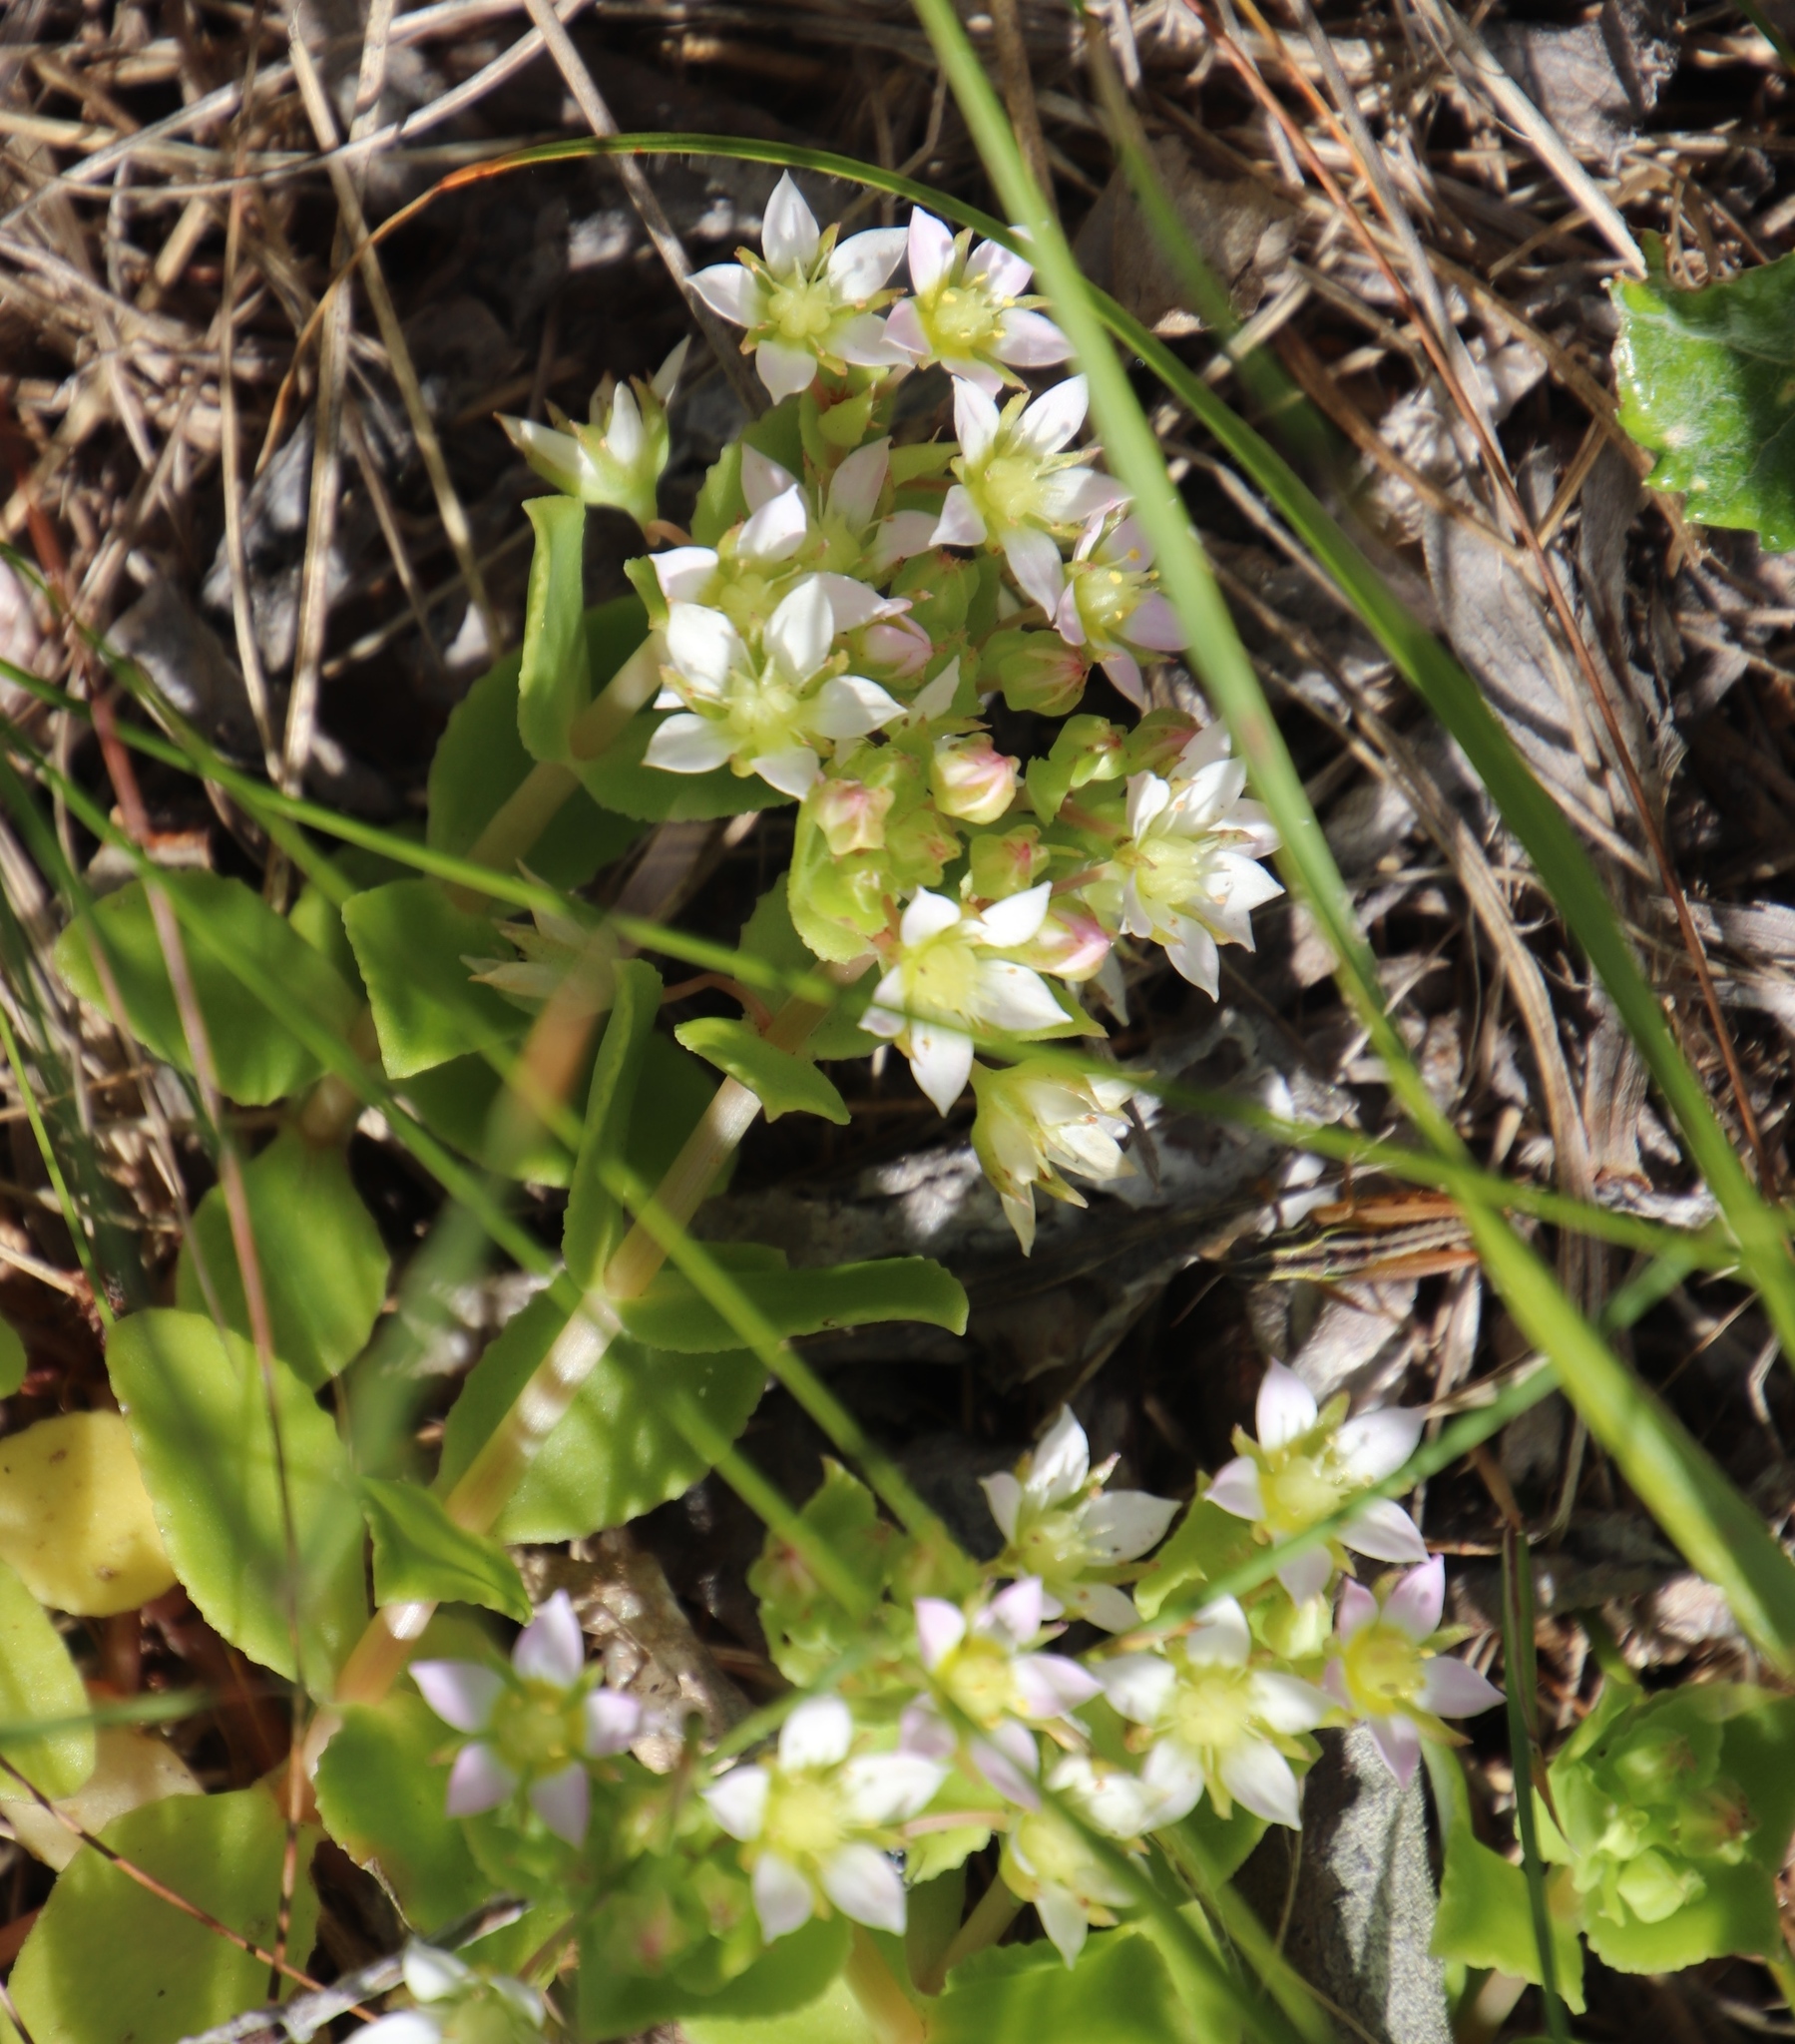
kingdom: Plantae
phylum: Tracheophyta
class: Magnoliopsida
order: Saxifragales
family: Crassulaceae
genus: Crassula
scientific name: Crassula pellucida
